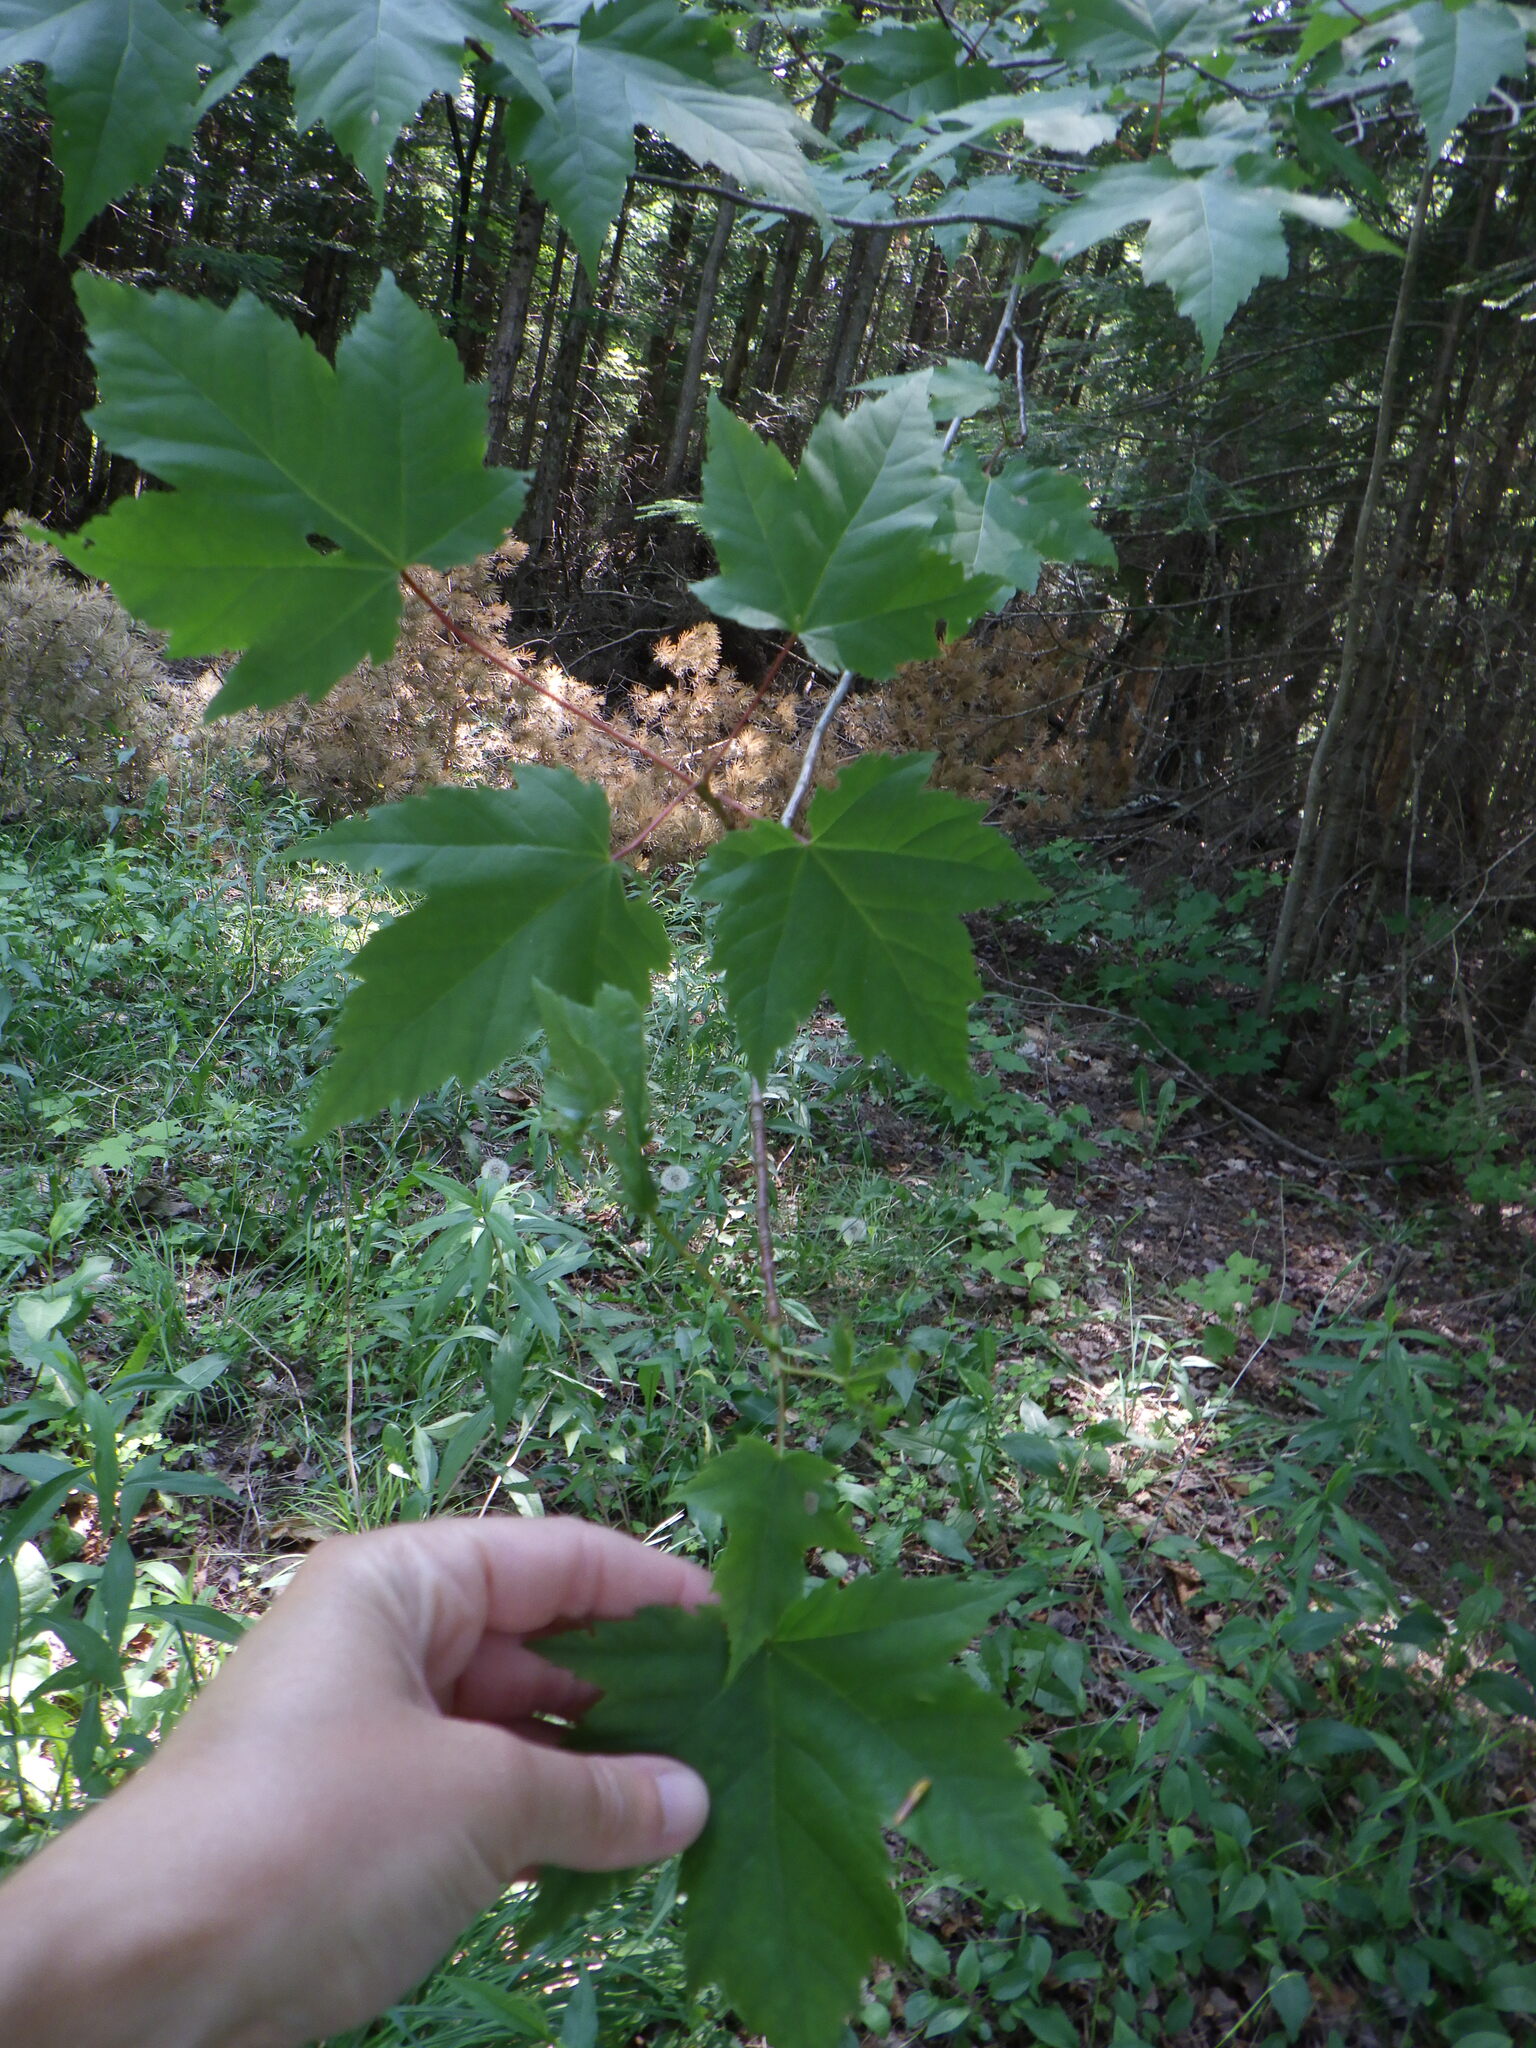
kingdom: Plantae
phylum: Tracheophyta
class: Magnoliopsida
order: Sapindales
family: Sapindaceae
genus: Acer
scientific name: Acer rubrum
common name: Red maple
